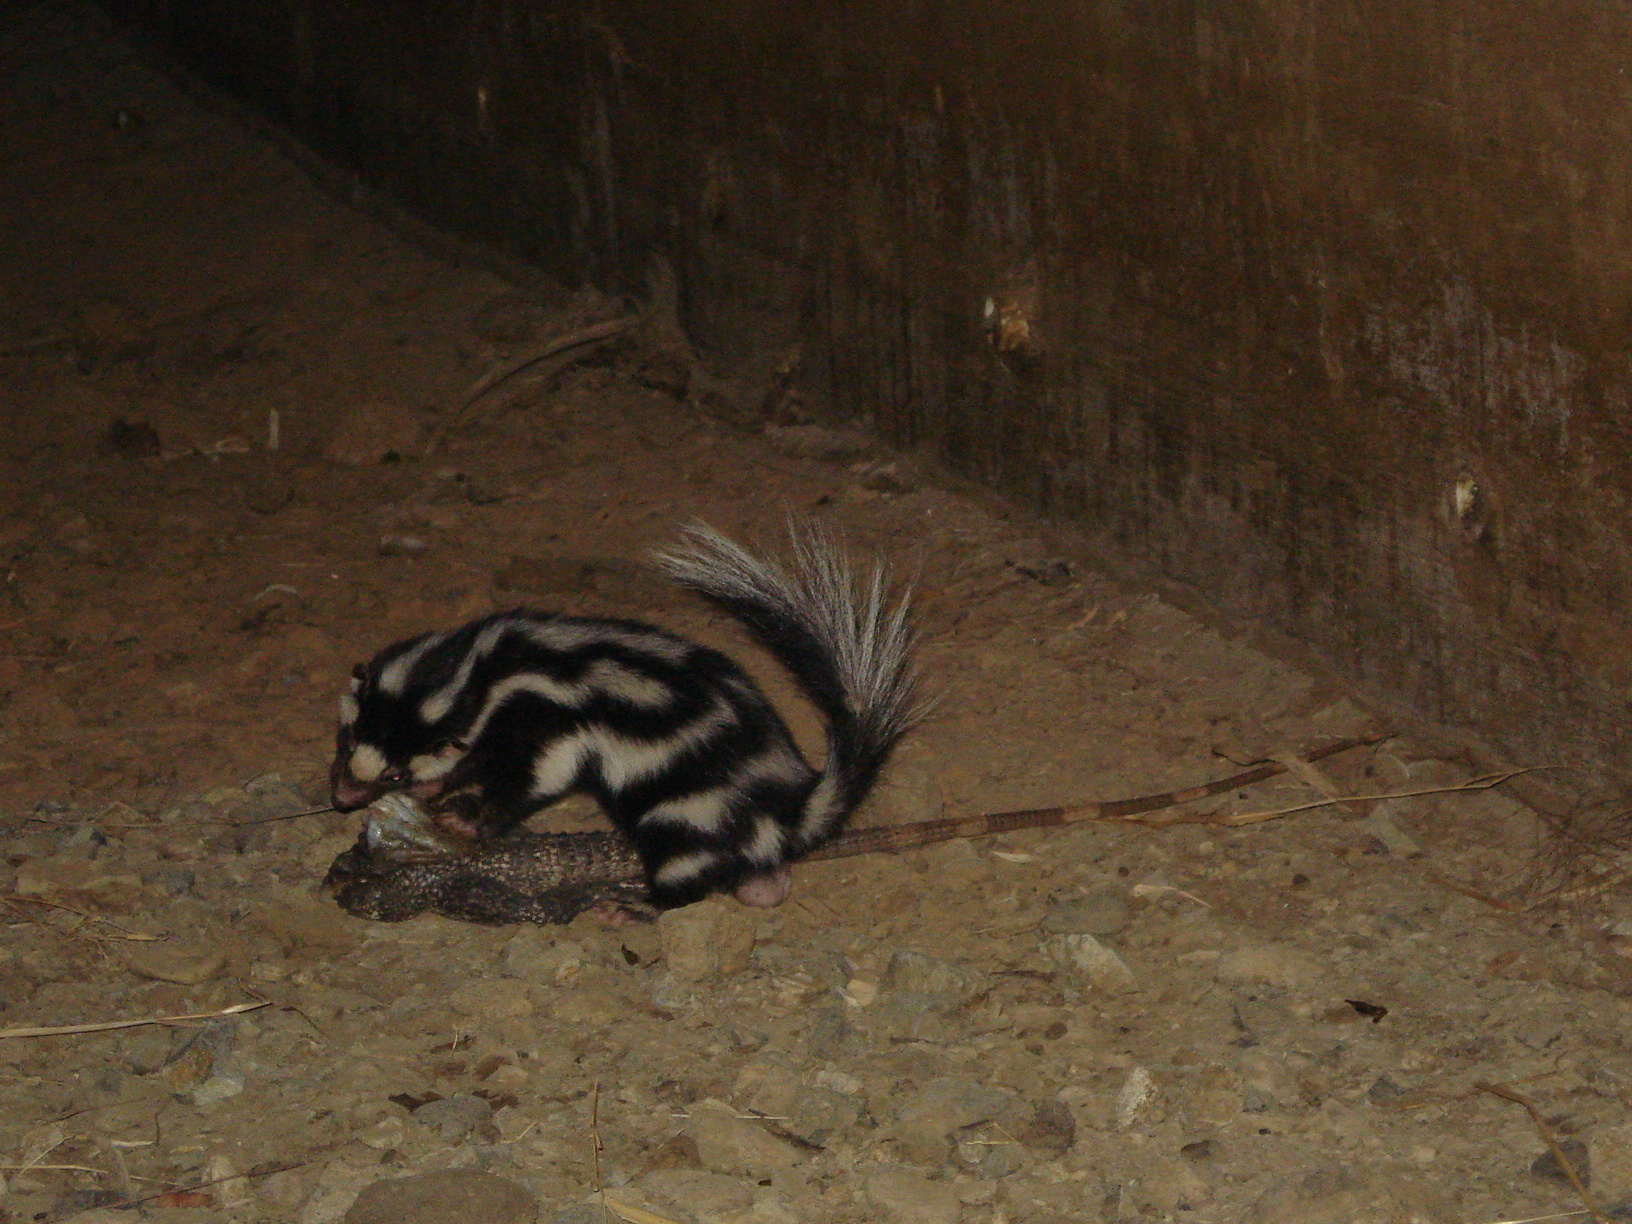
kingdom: Animalia
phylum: Chordata
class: Mammalia
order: Carnivora
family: Mephitidae
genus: Spilogale
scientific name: Spilogale angustifrons
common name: Southern spotted skunk
